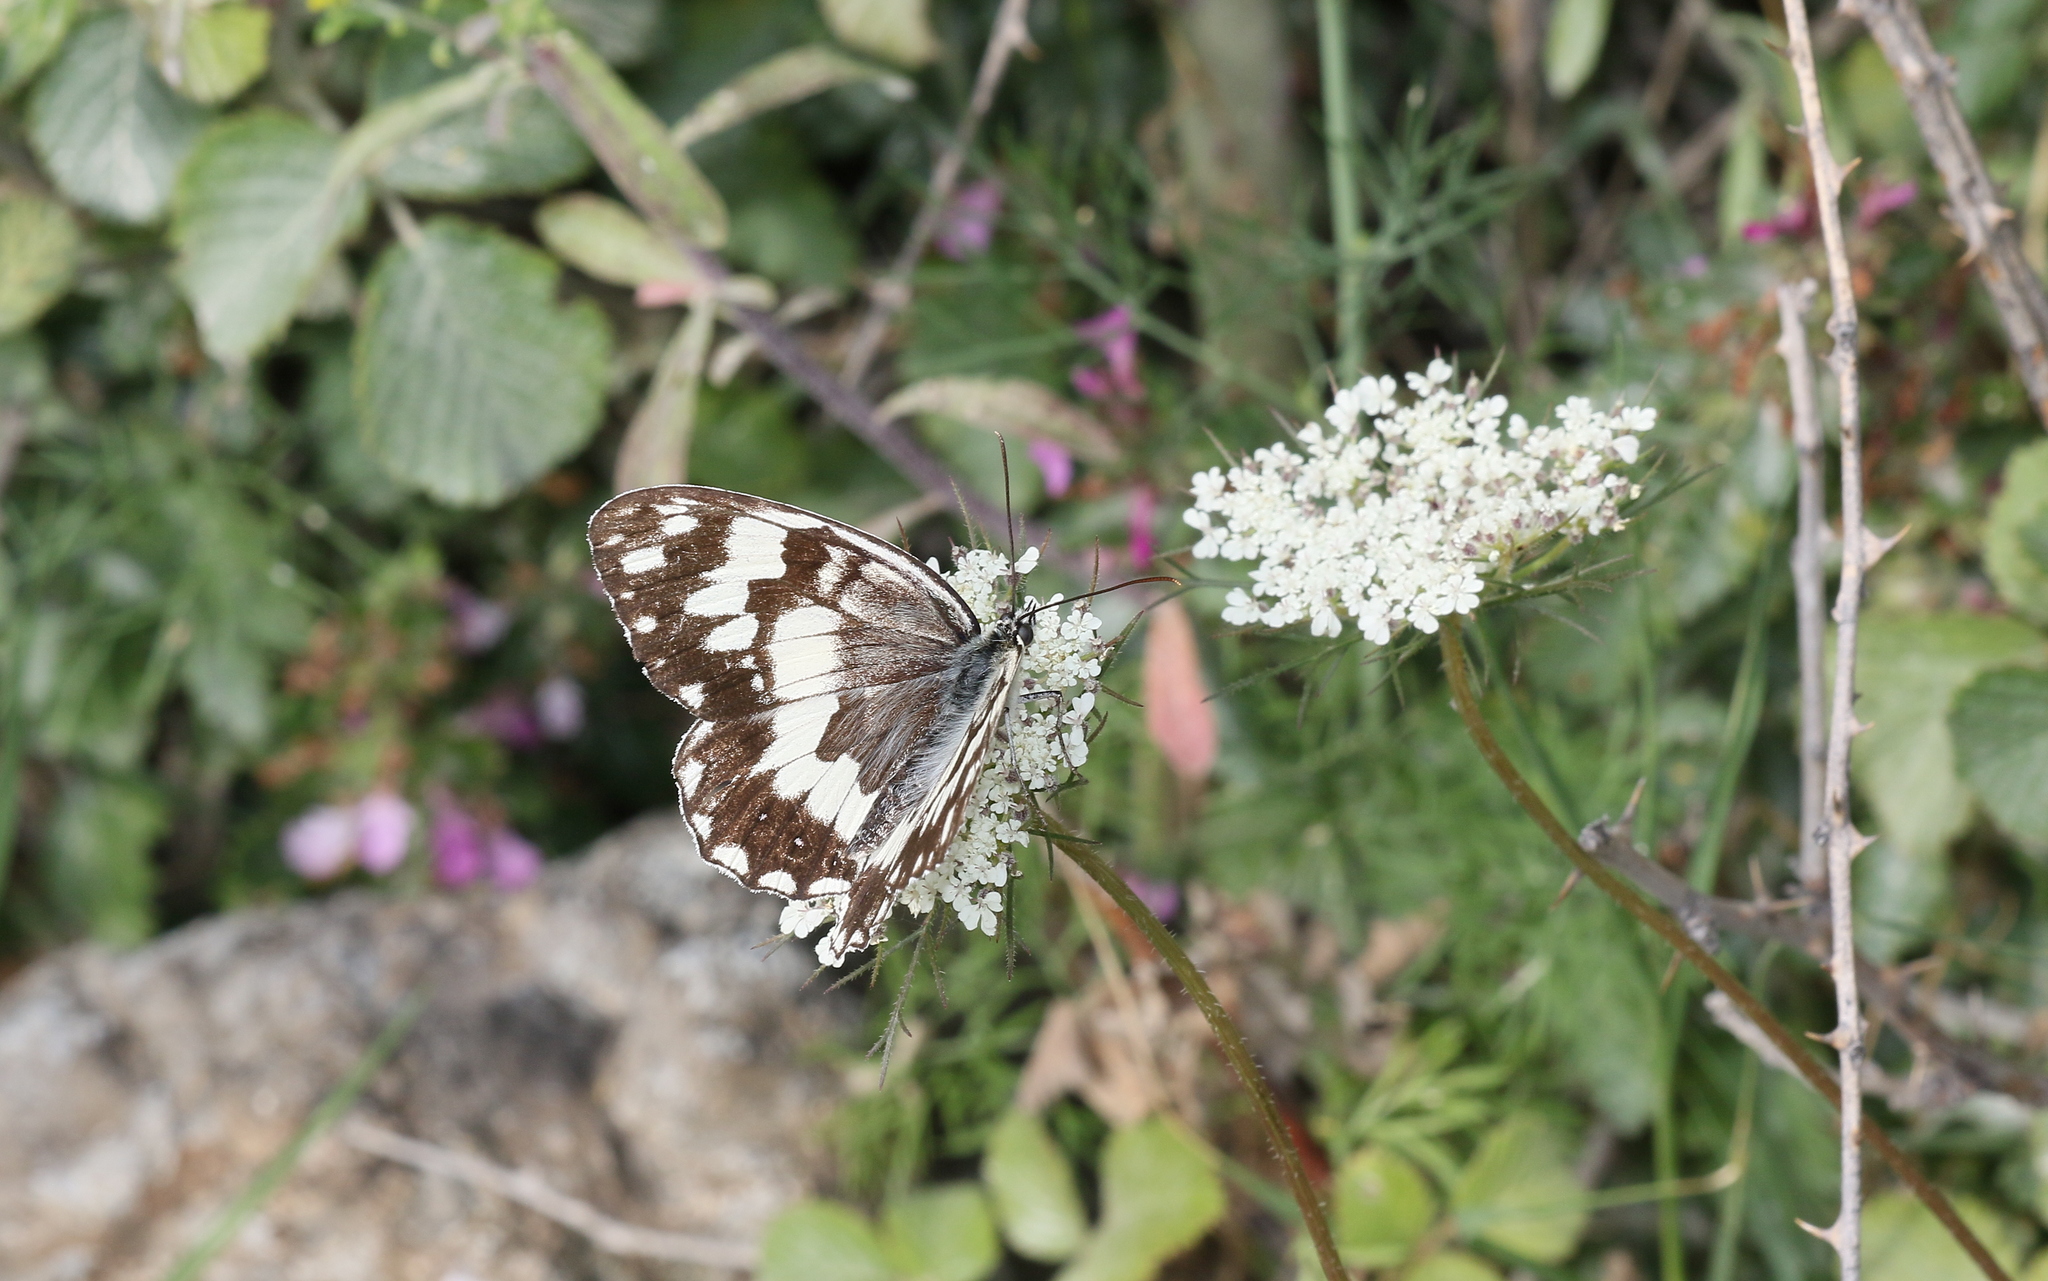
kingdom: Animalia
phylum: Arthropoda
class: Insecta
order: Lepidoptera
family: Nymphalidae
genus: Melanargia
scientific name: Melanargia larissa
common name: Balkan marbled white
